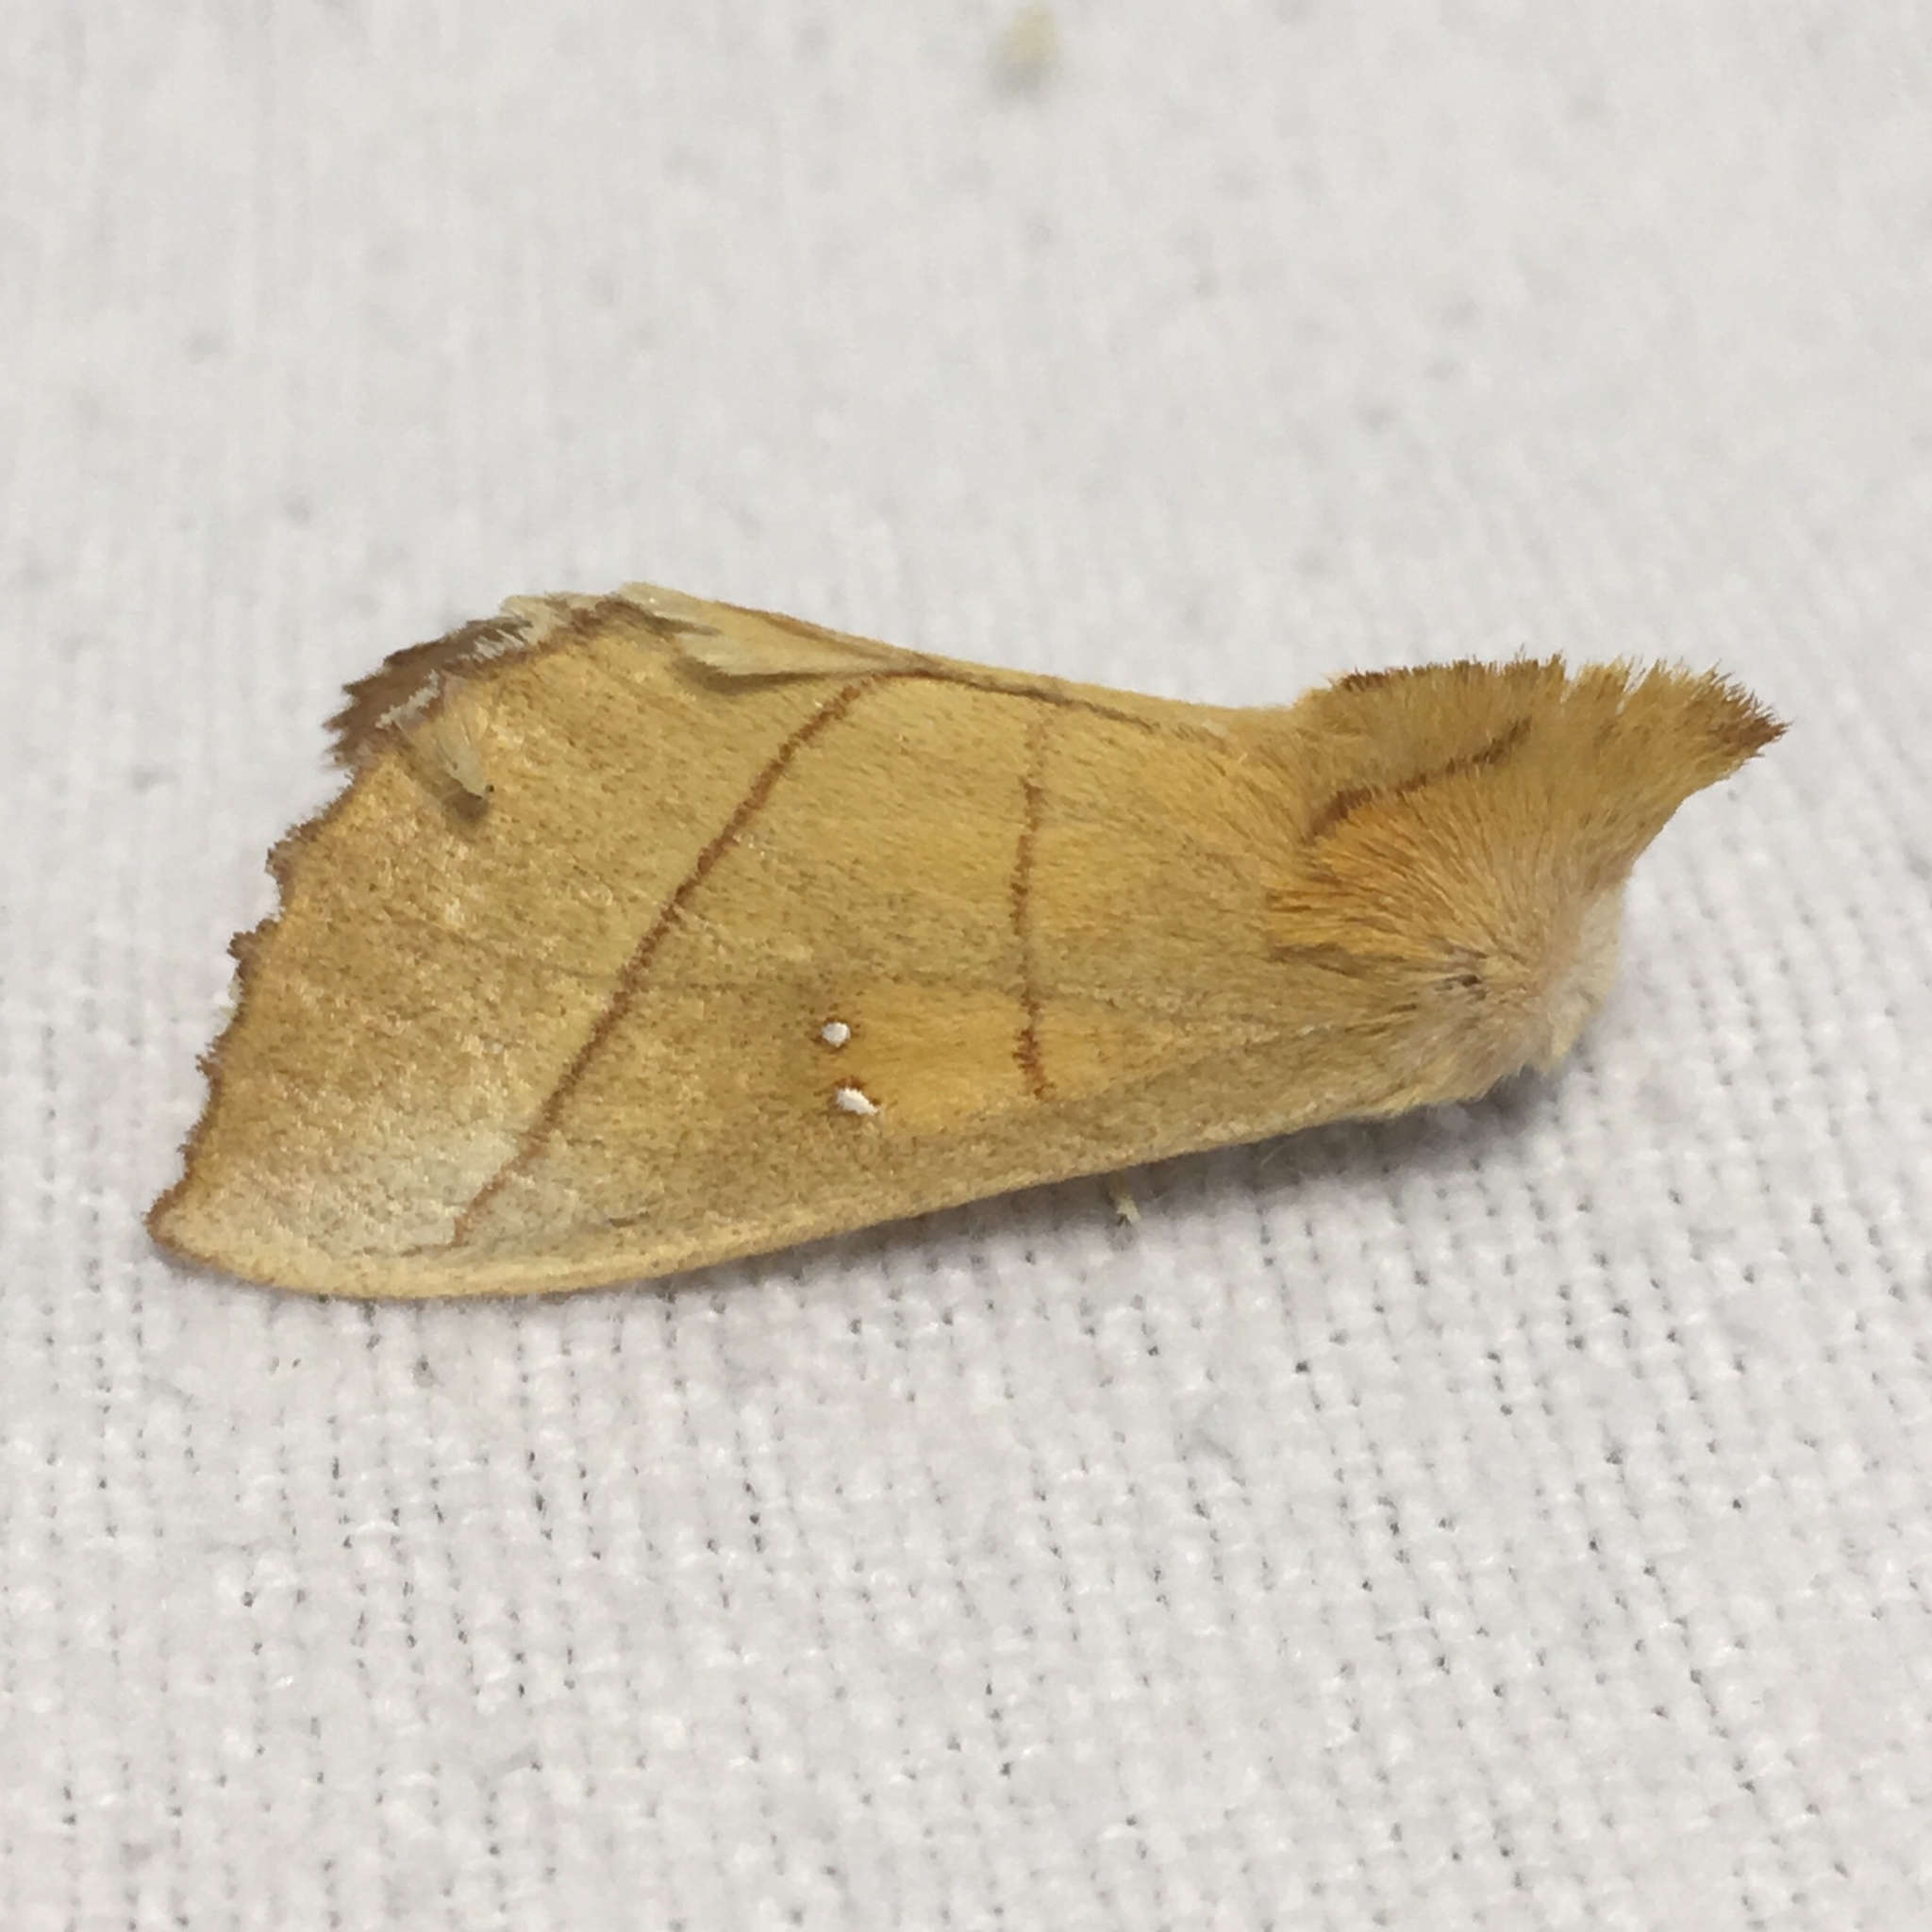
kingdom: Animalia
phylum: Arthropoda
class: Insecta
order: Lepidoptera
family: Notodontidae
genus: Nadata
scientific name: Nadata gibbosa
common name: White-dotted prominent
